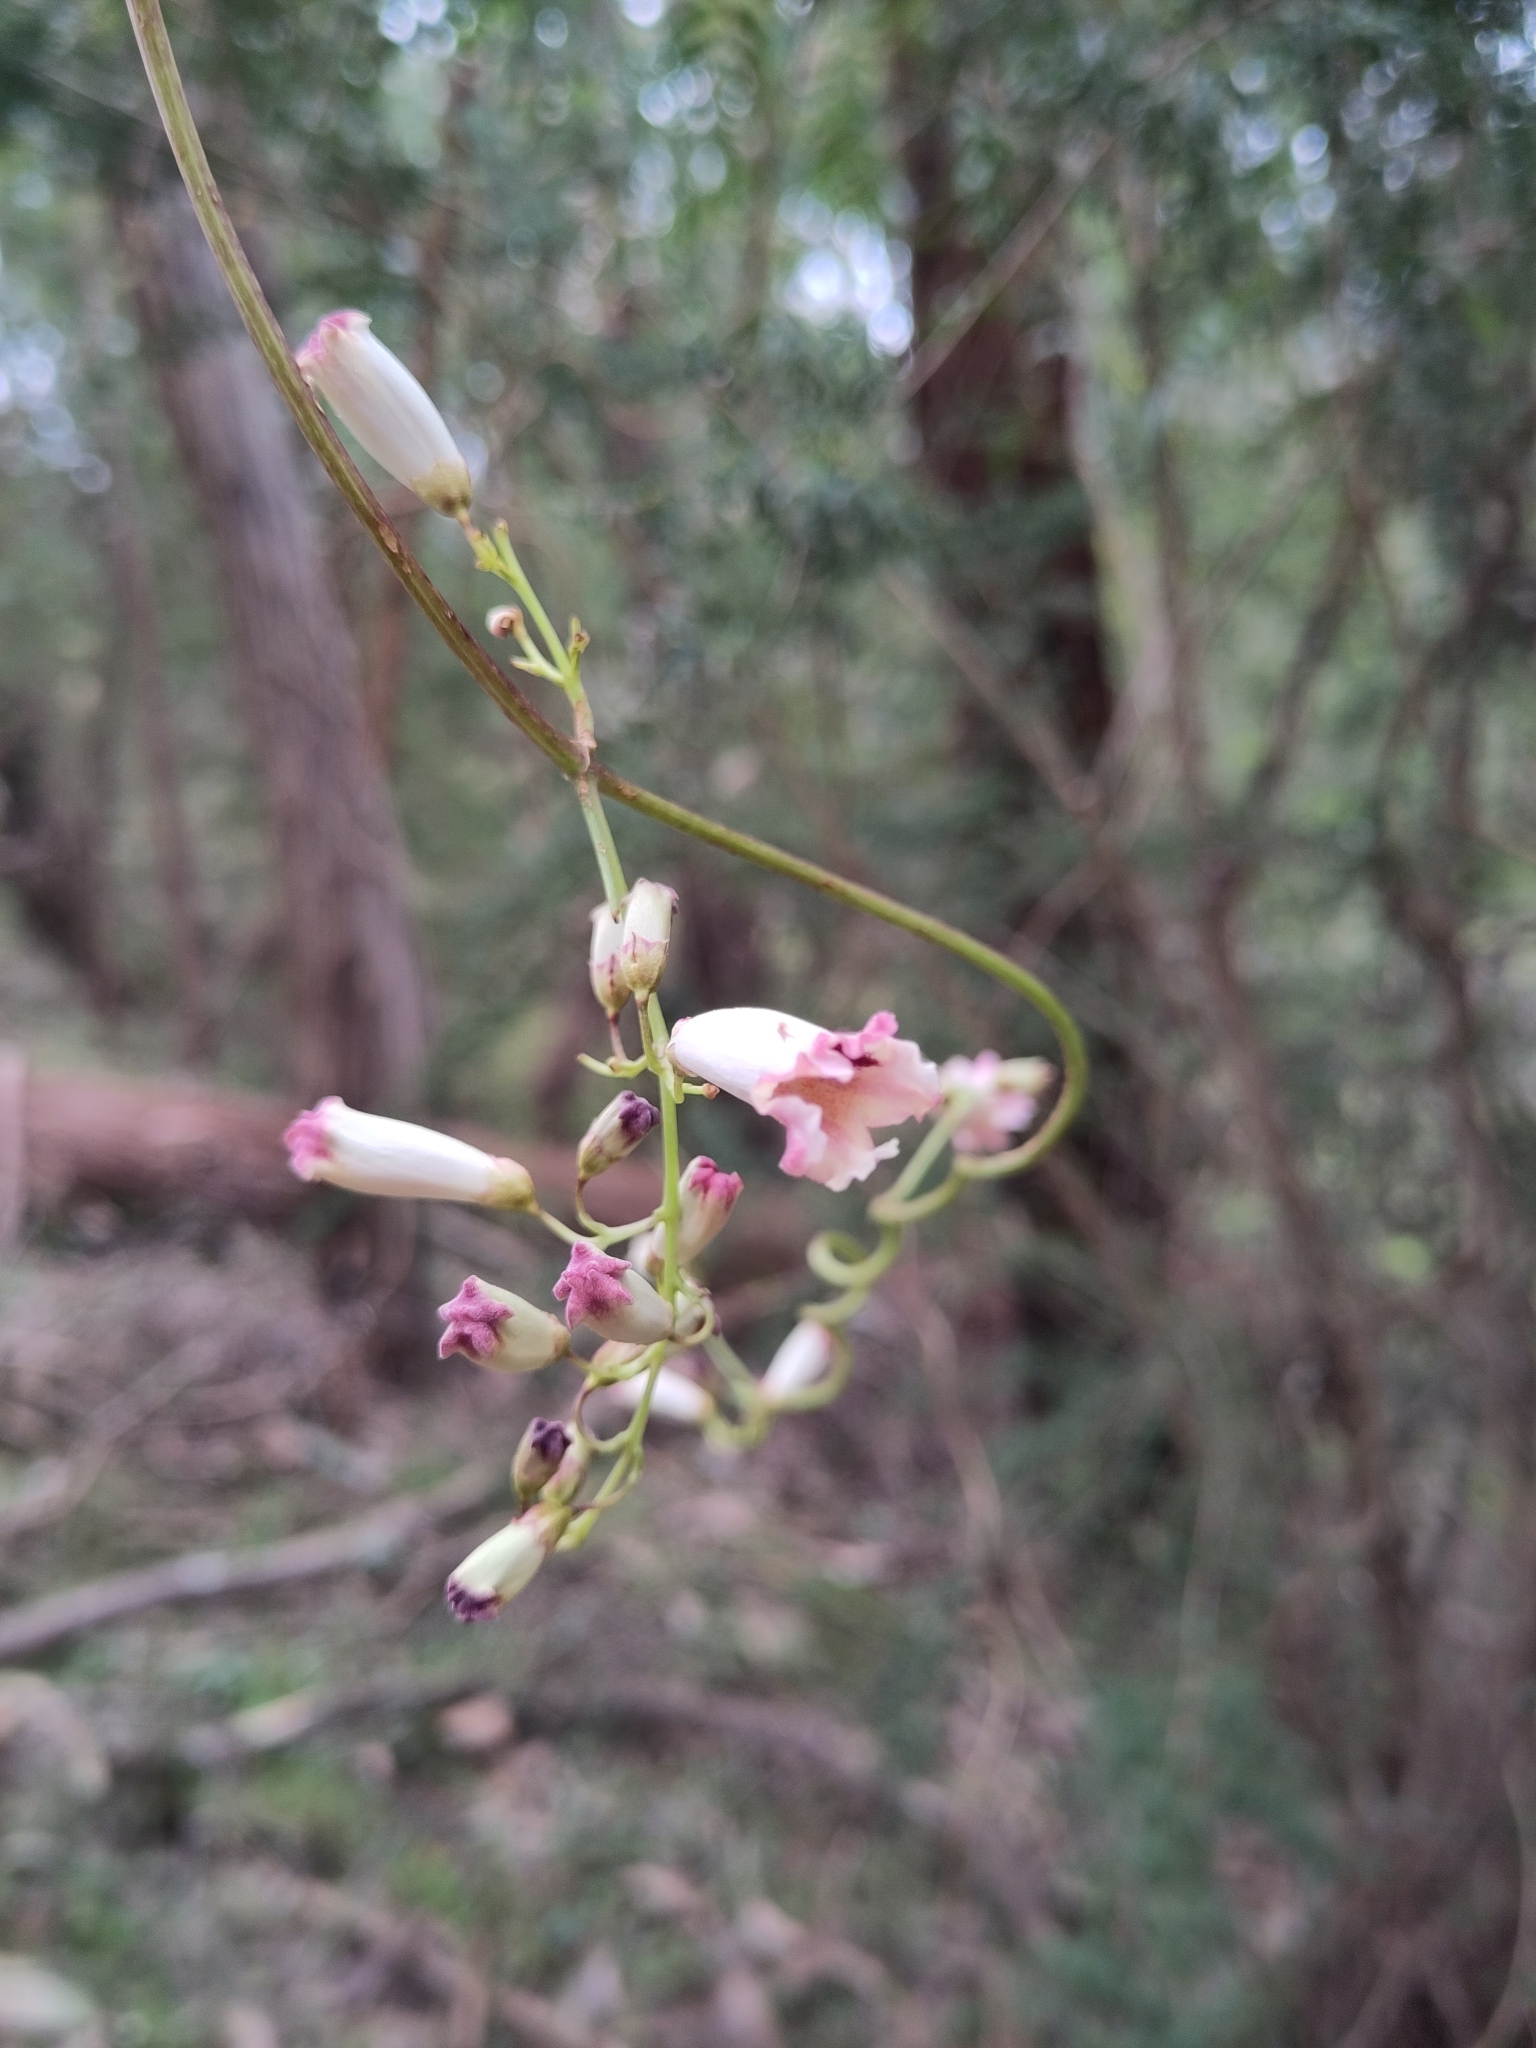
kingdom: Plantae
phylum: Tracheophyta
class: Magnoliopsida
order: Lamiales
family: Bignoniaceae
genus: Pandorea
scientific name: Pandorea pandorana
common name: Wonga-wonga-vine
